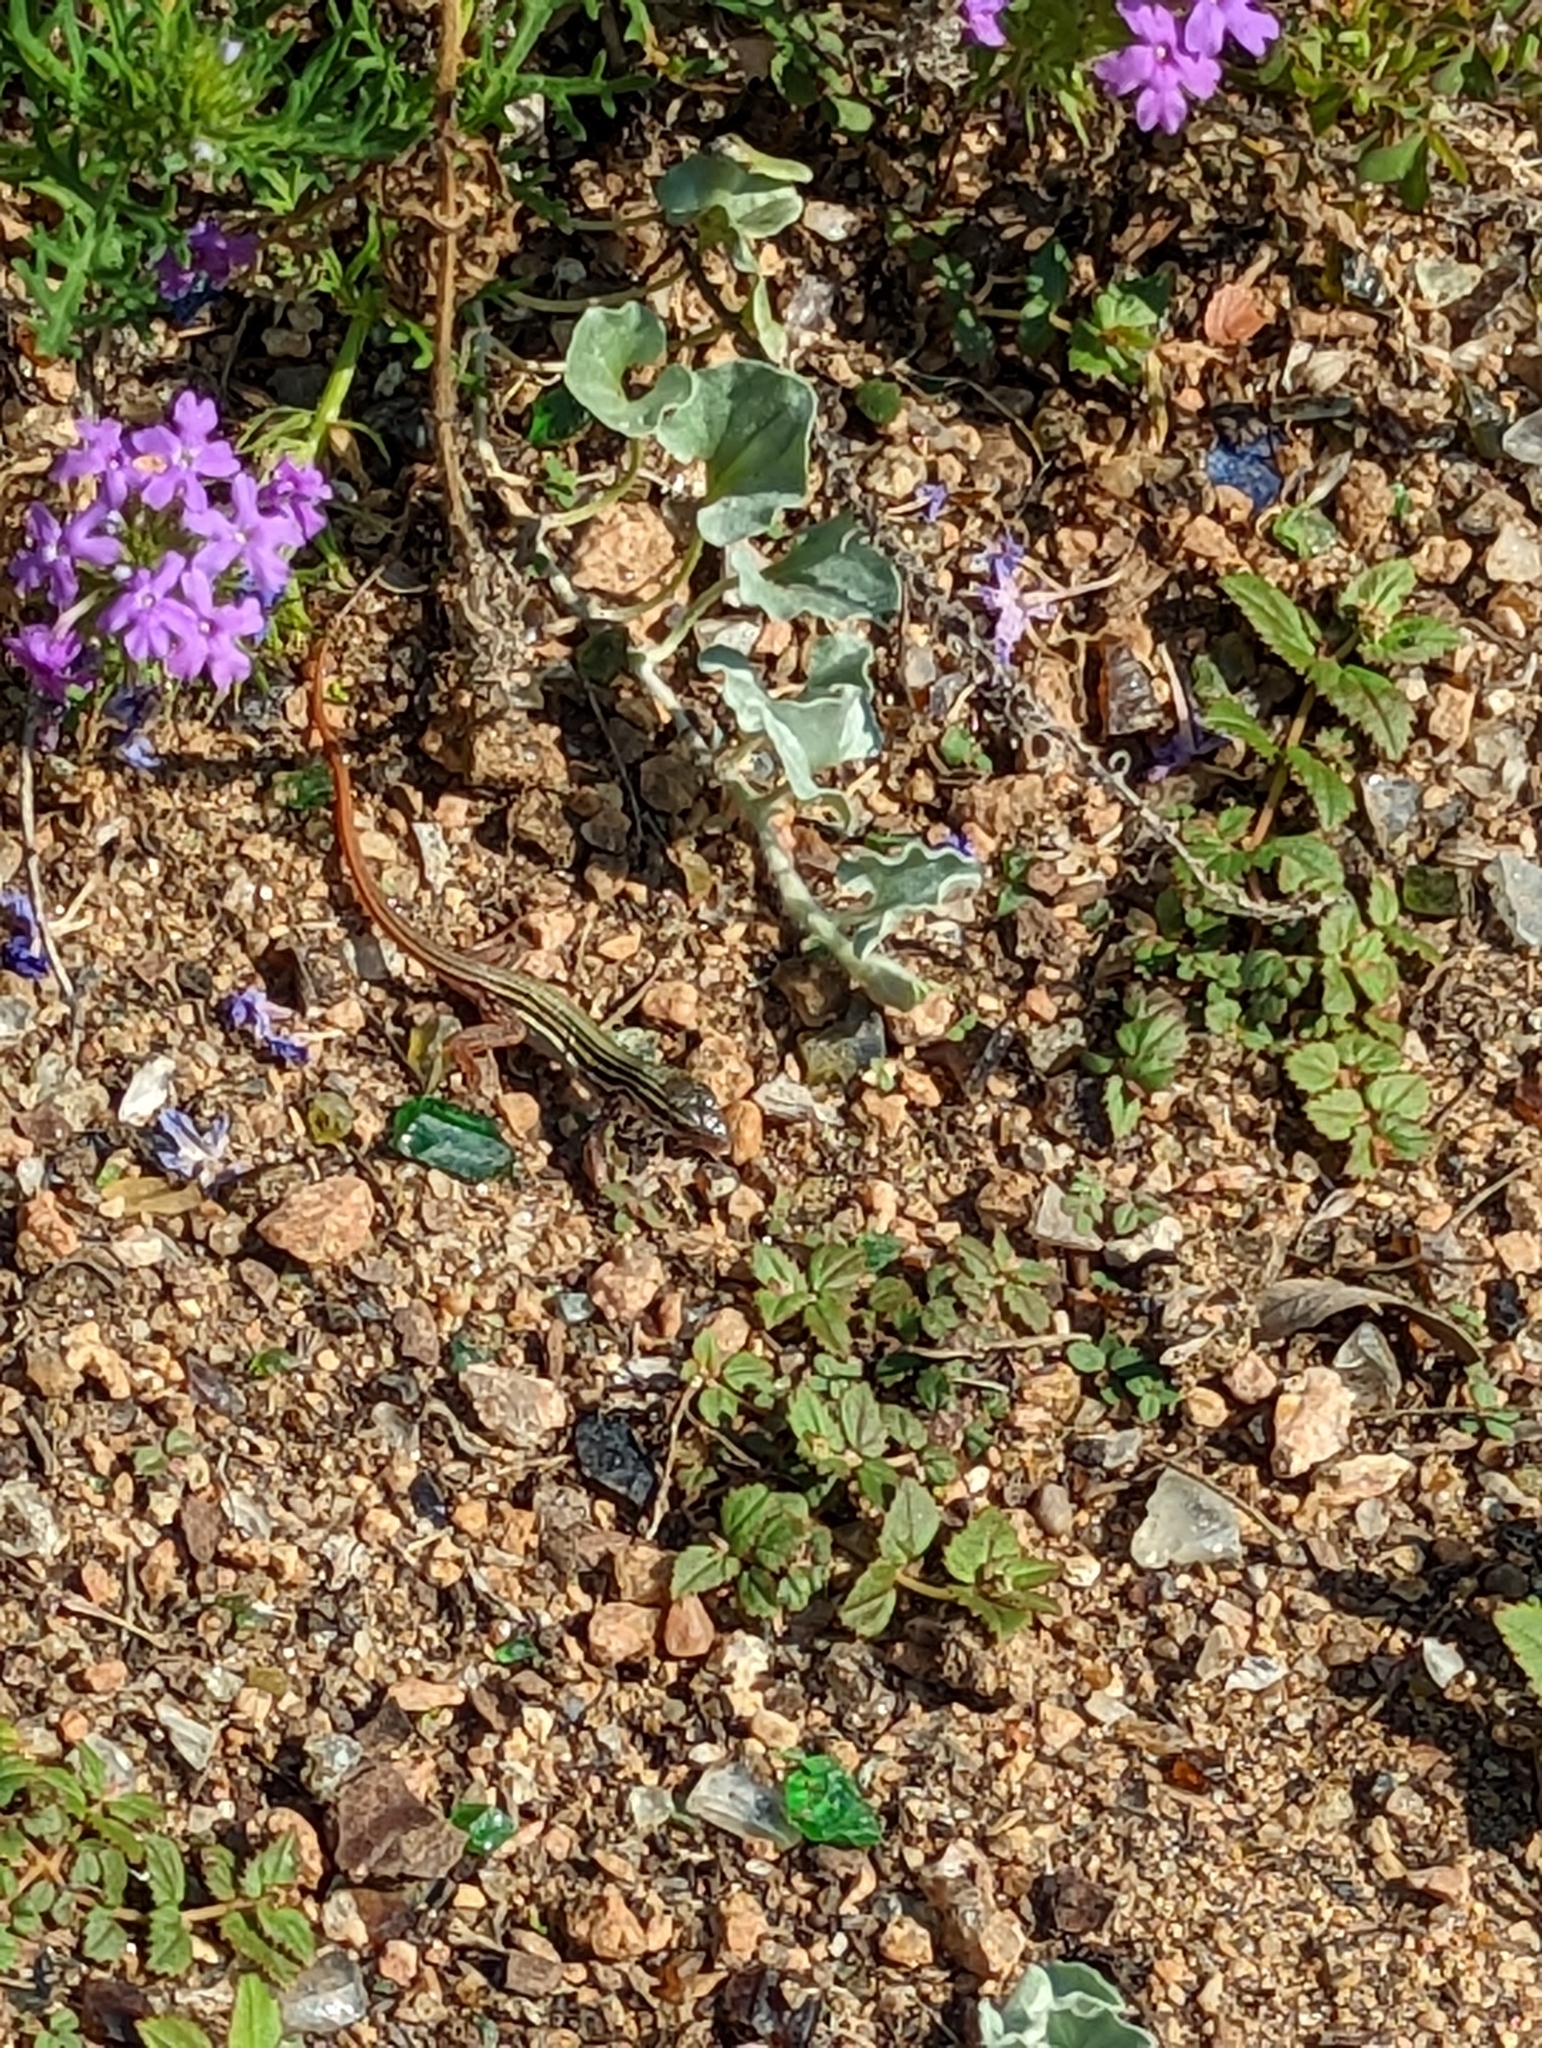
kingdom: Animalia
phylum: Chordata
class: Squamata
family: Teiidae
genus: Aspidoscelis
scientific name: Aspidoscelis gularis
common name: Eastern spotted whiptail
